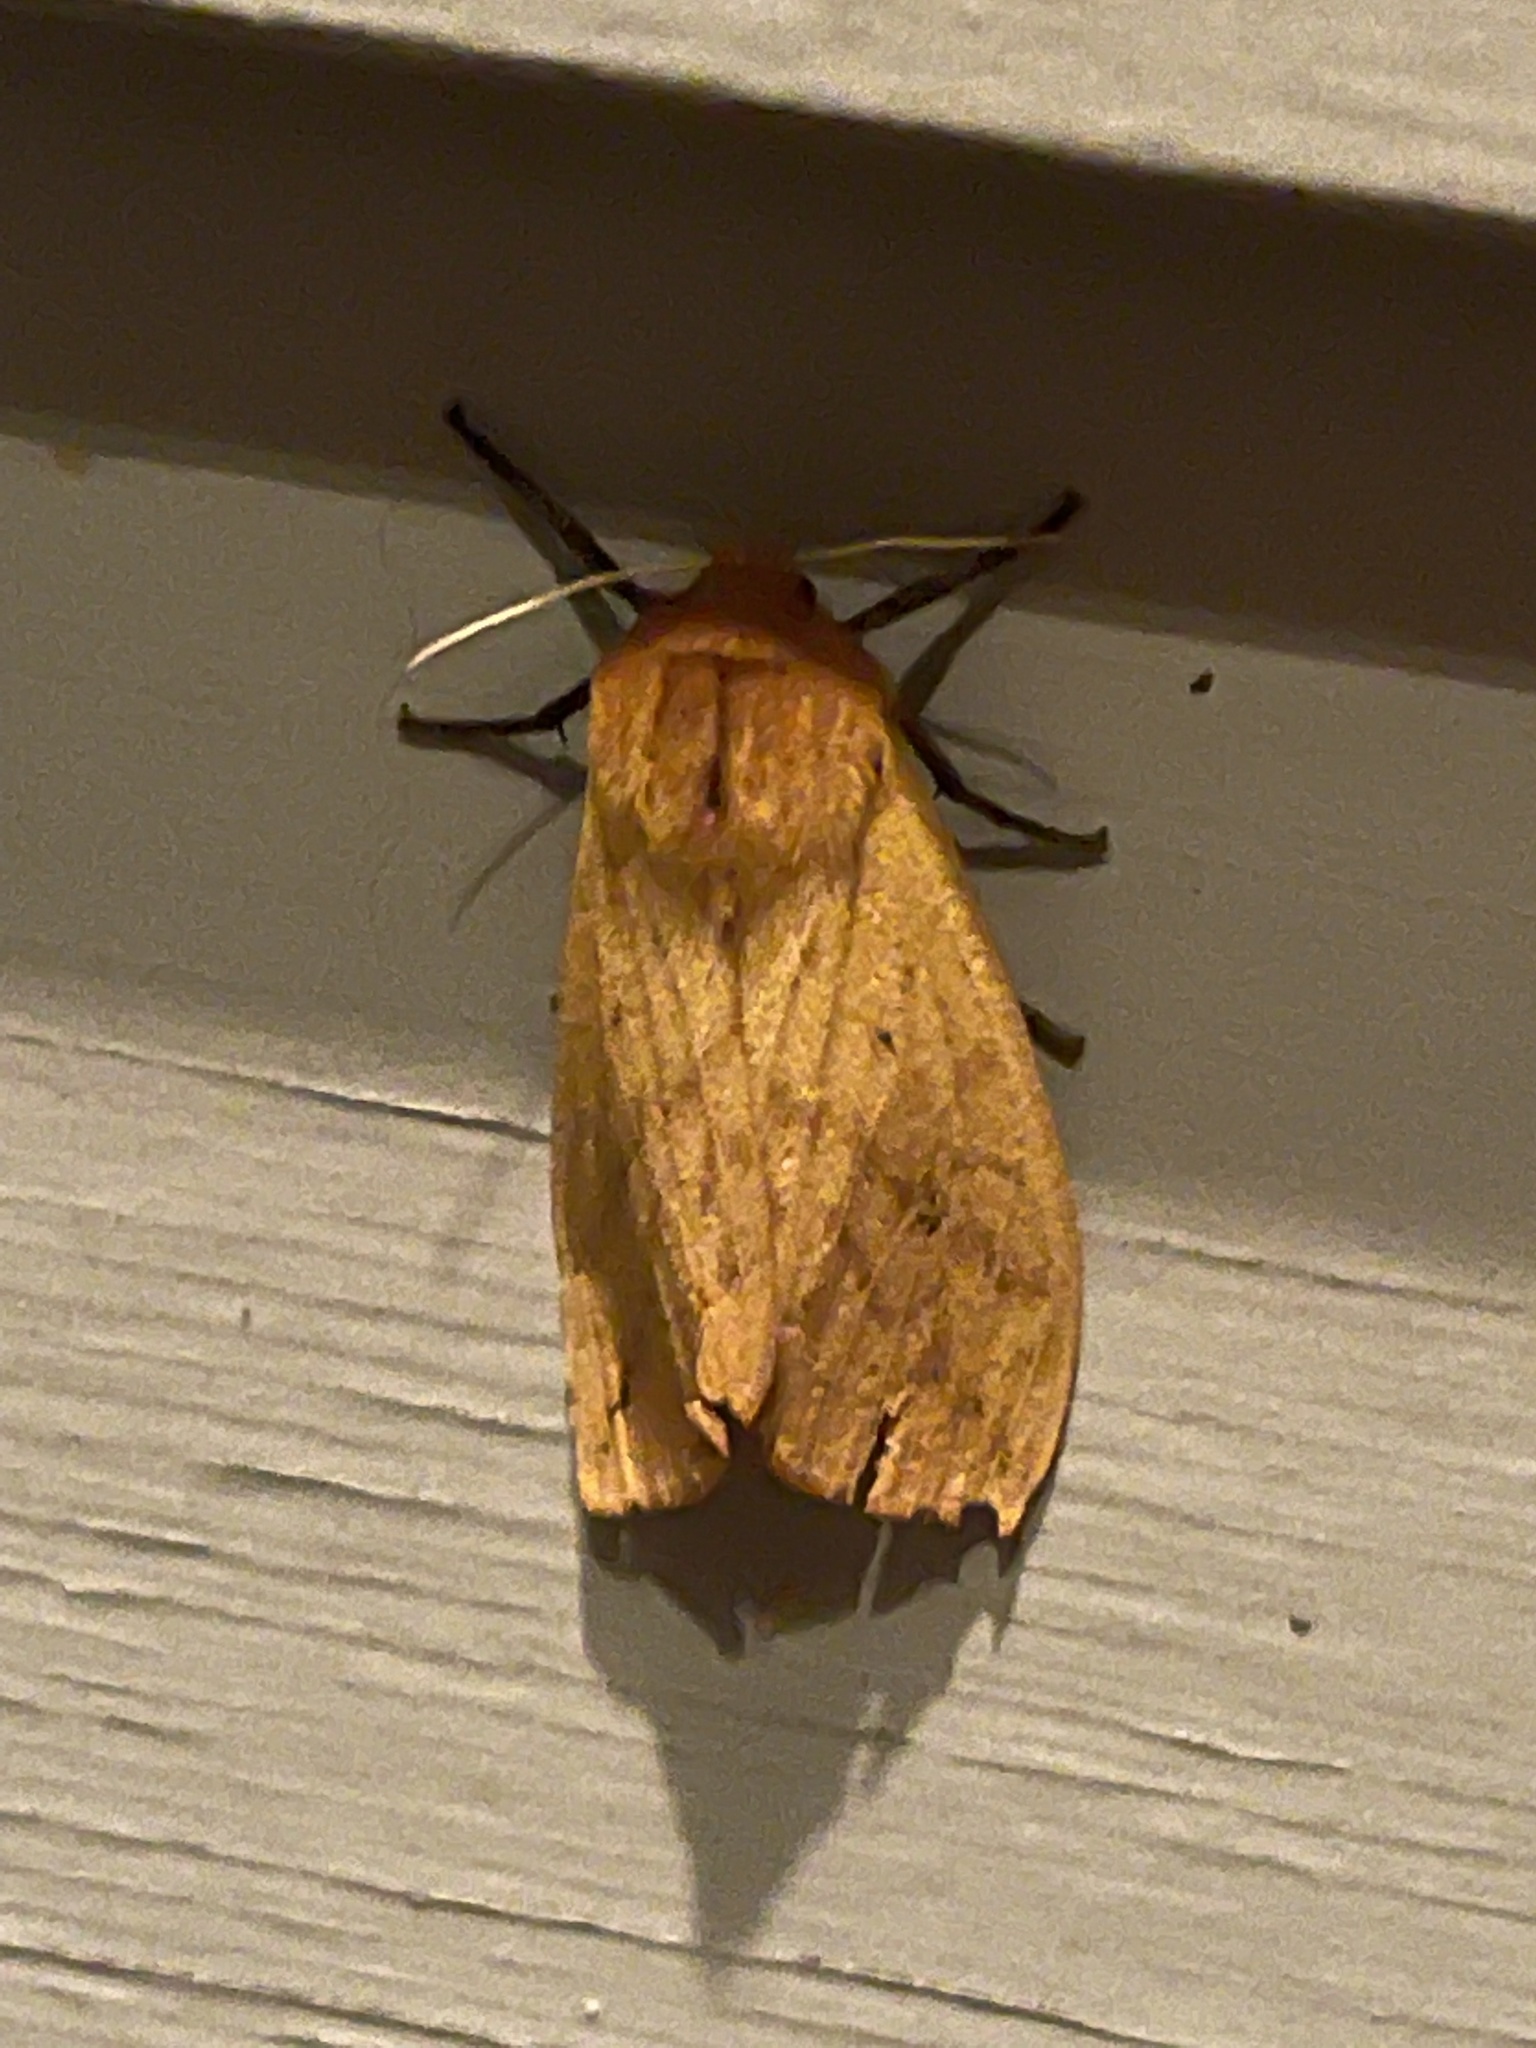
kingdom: Animalia
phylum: Arthropoda
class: Insecta
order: Lepidoptera
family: Erebidae
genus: Pyrrharctia
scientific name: Pyrrharctia isabella
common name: Isabella tiger moth
